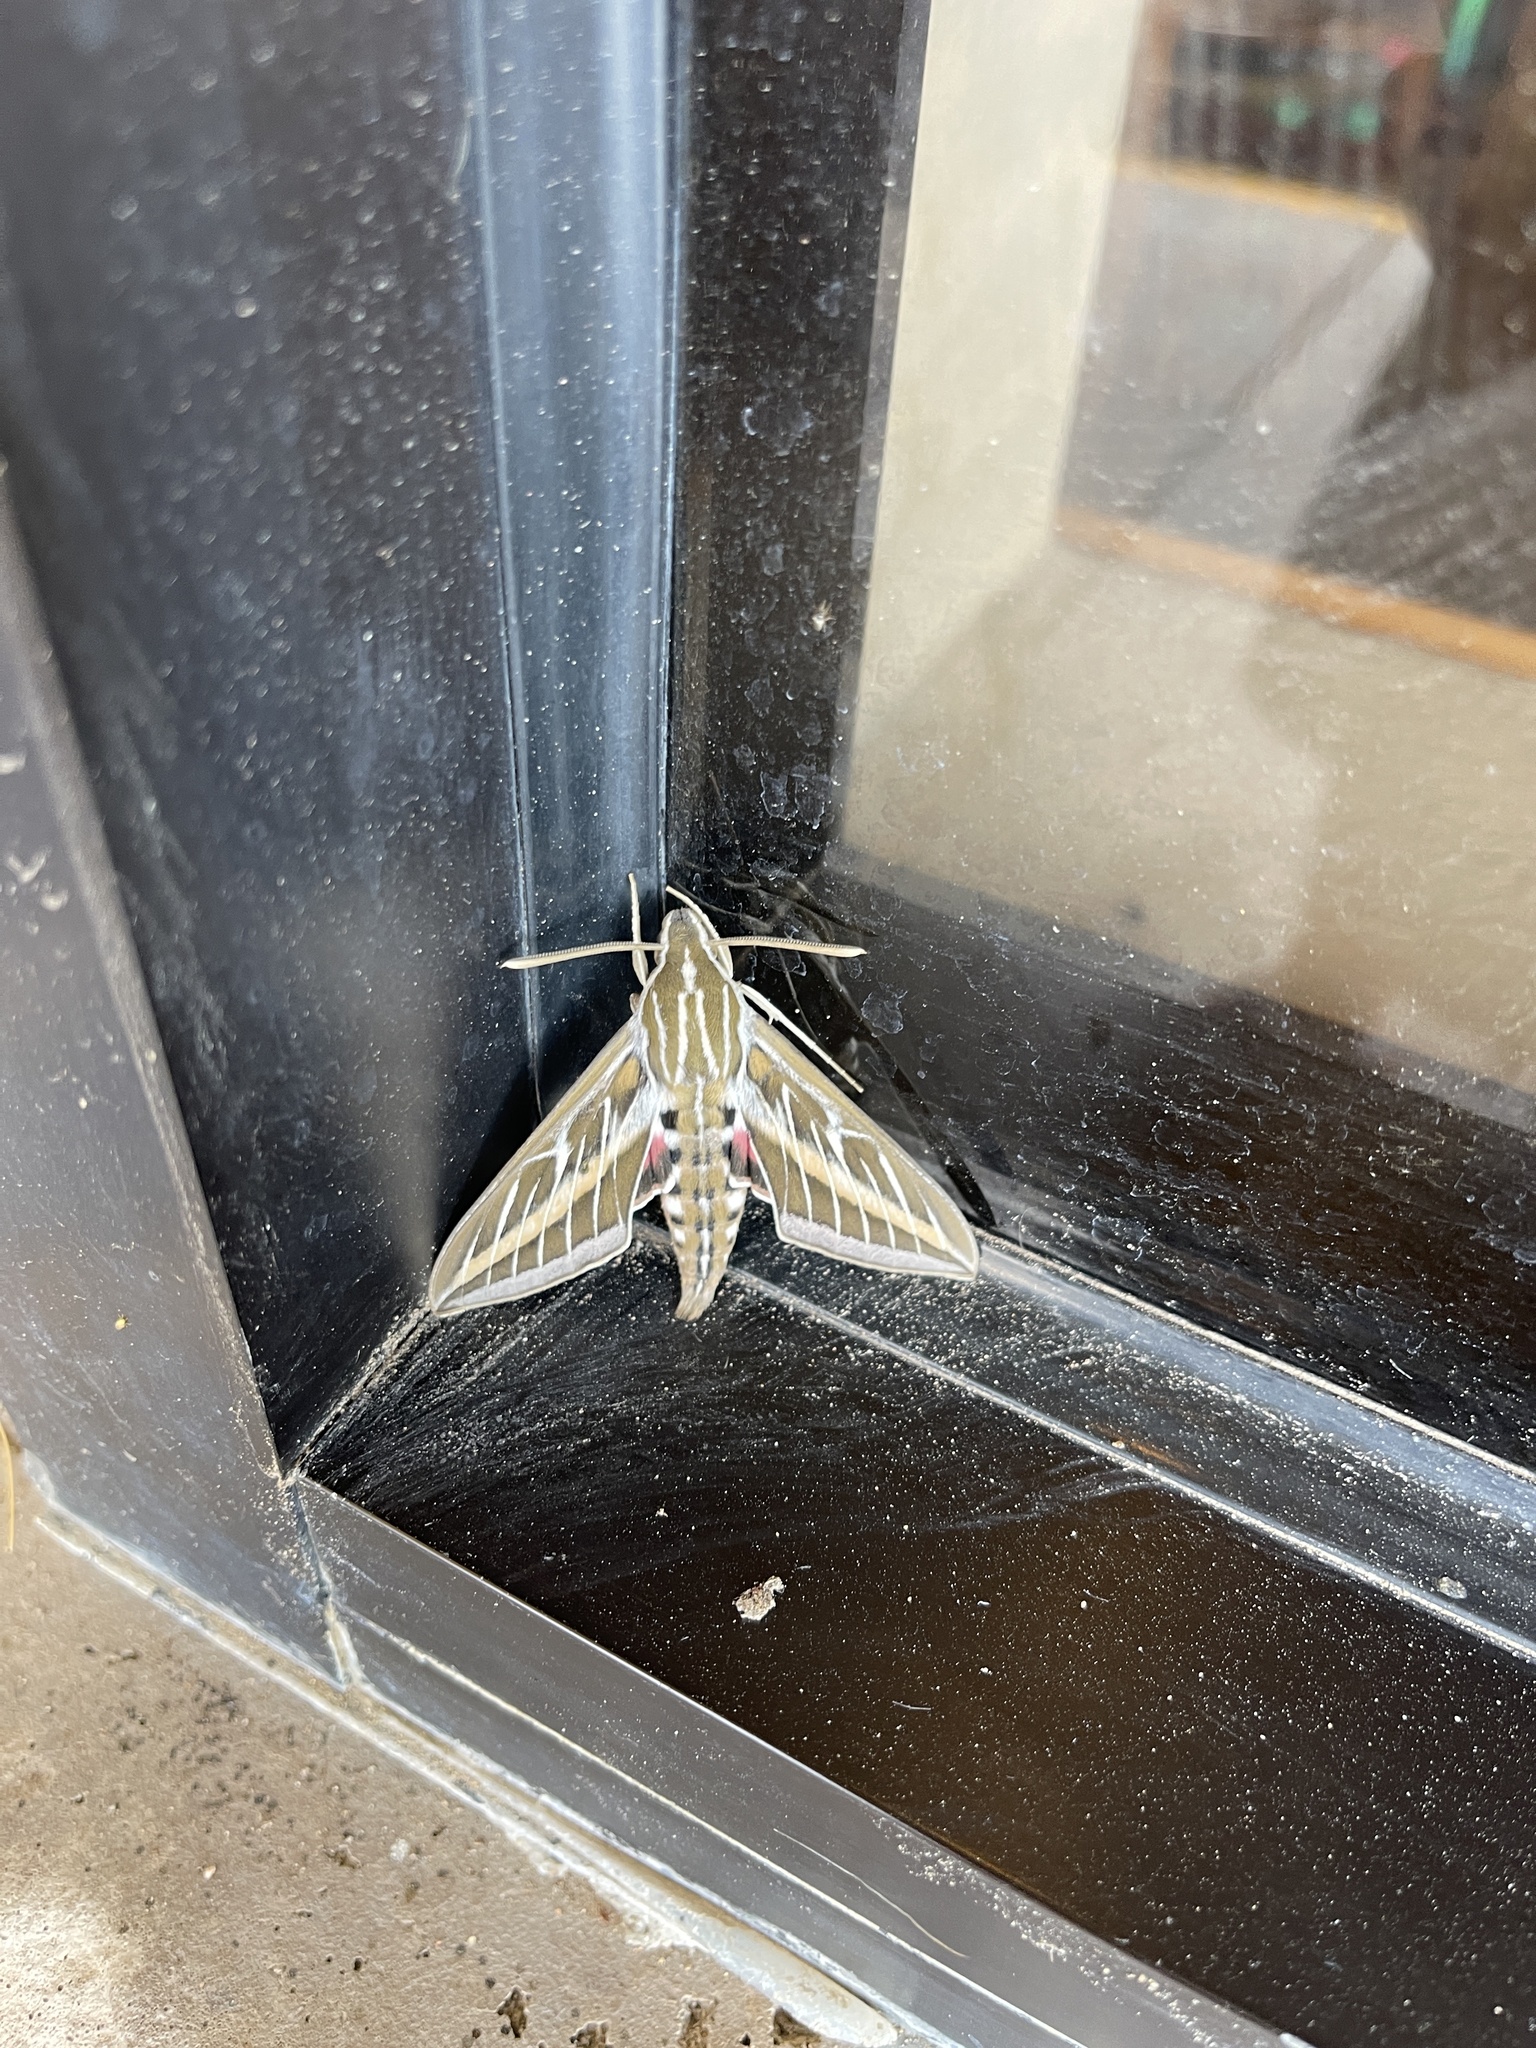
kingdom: Animalia
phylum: Arthropoda
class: Insecta
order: Lepidoptera
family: Sphingidae
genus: Hyles
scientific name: Hyles lineata
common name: White-lined sphinx
